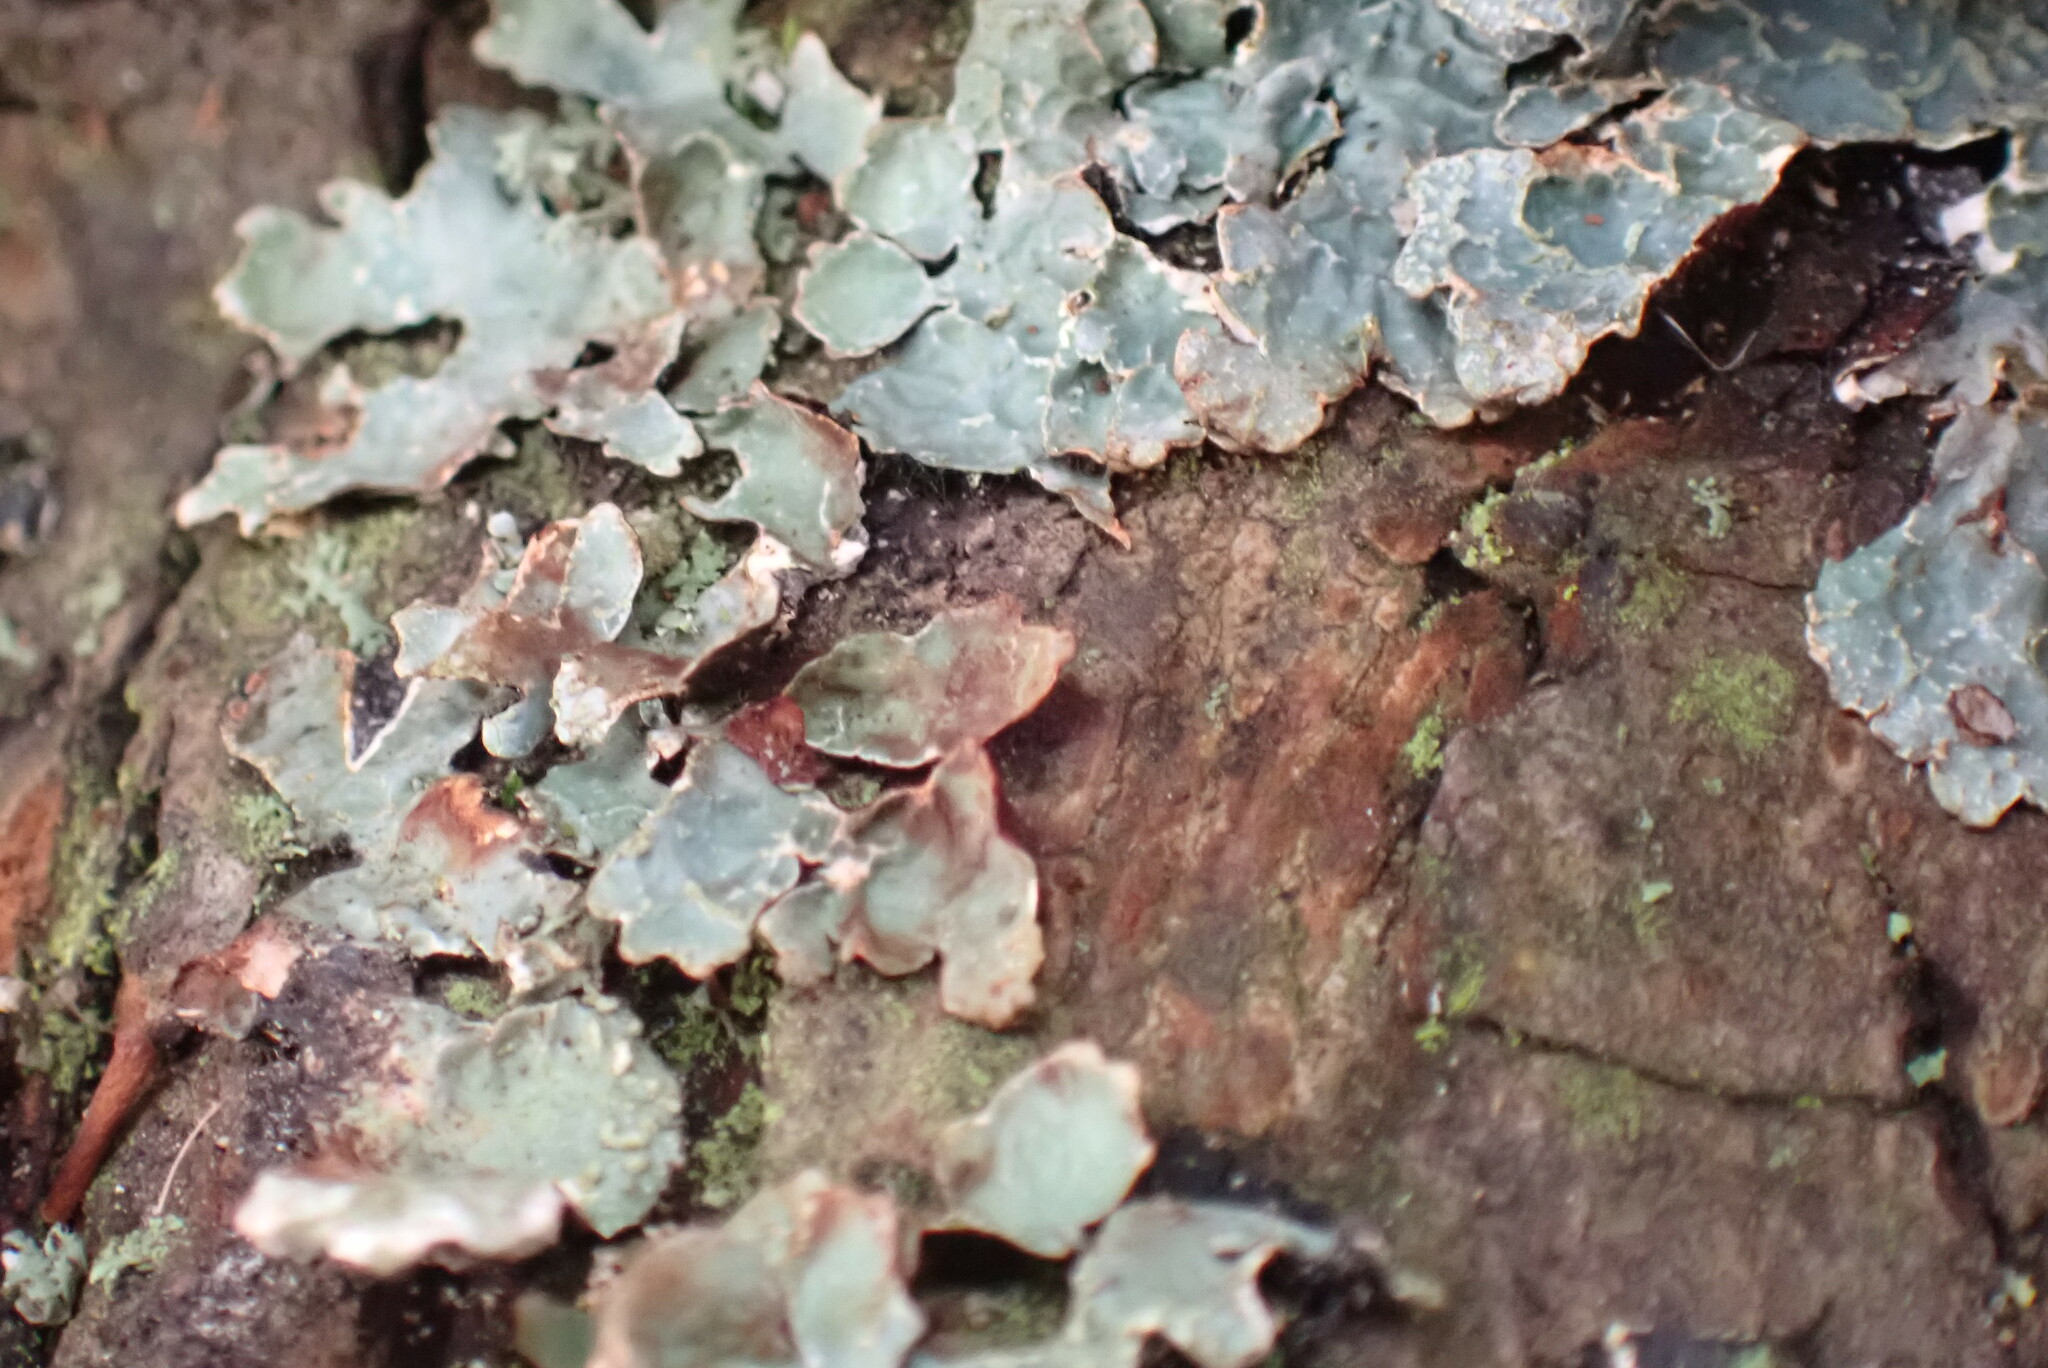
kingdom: Fungi
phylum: Ascomycota
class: Lecanoromycetes
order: Lecanorales
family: Parmeliaceae
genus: Parmelia
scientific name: Parmelia sulcata
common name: Netted shield lichen
